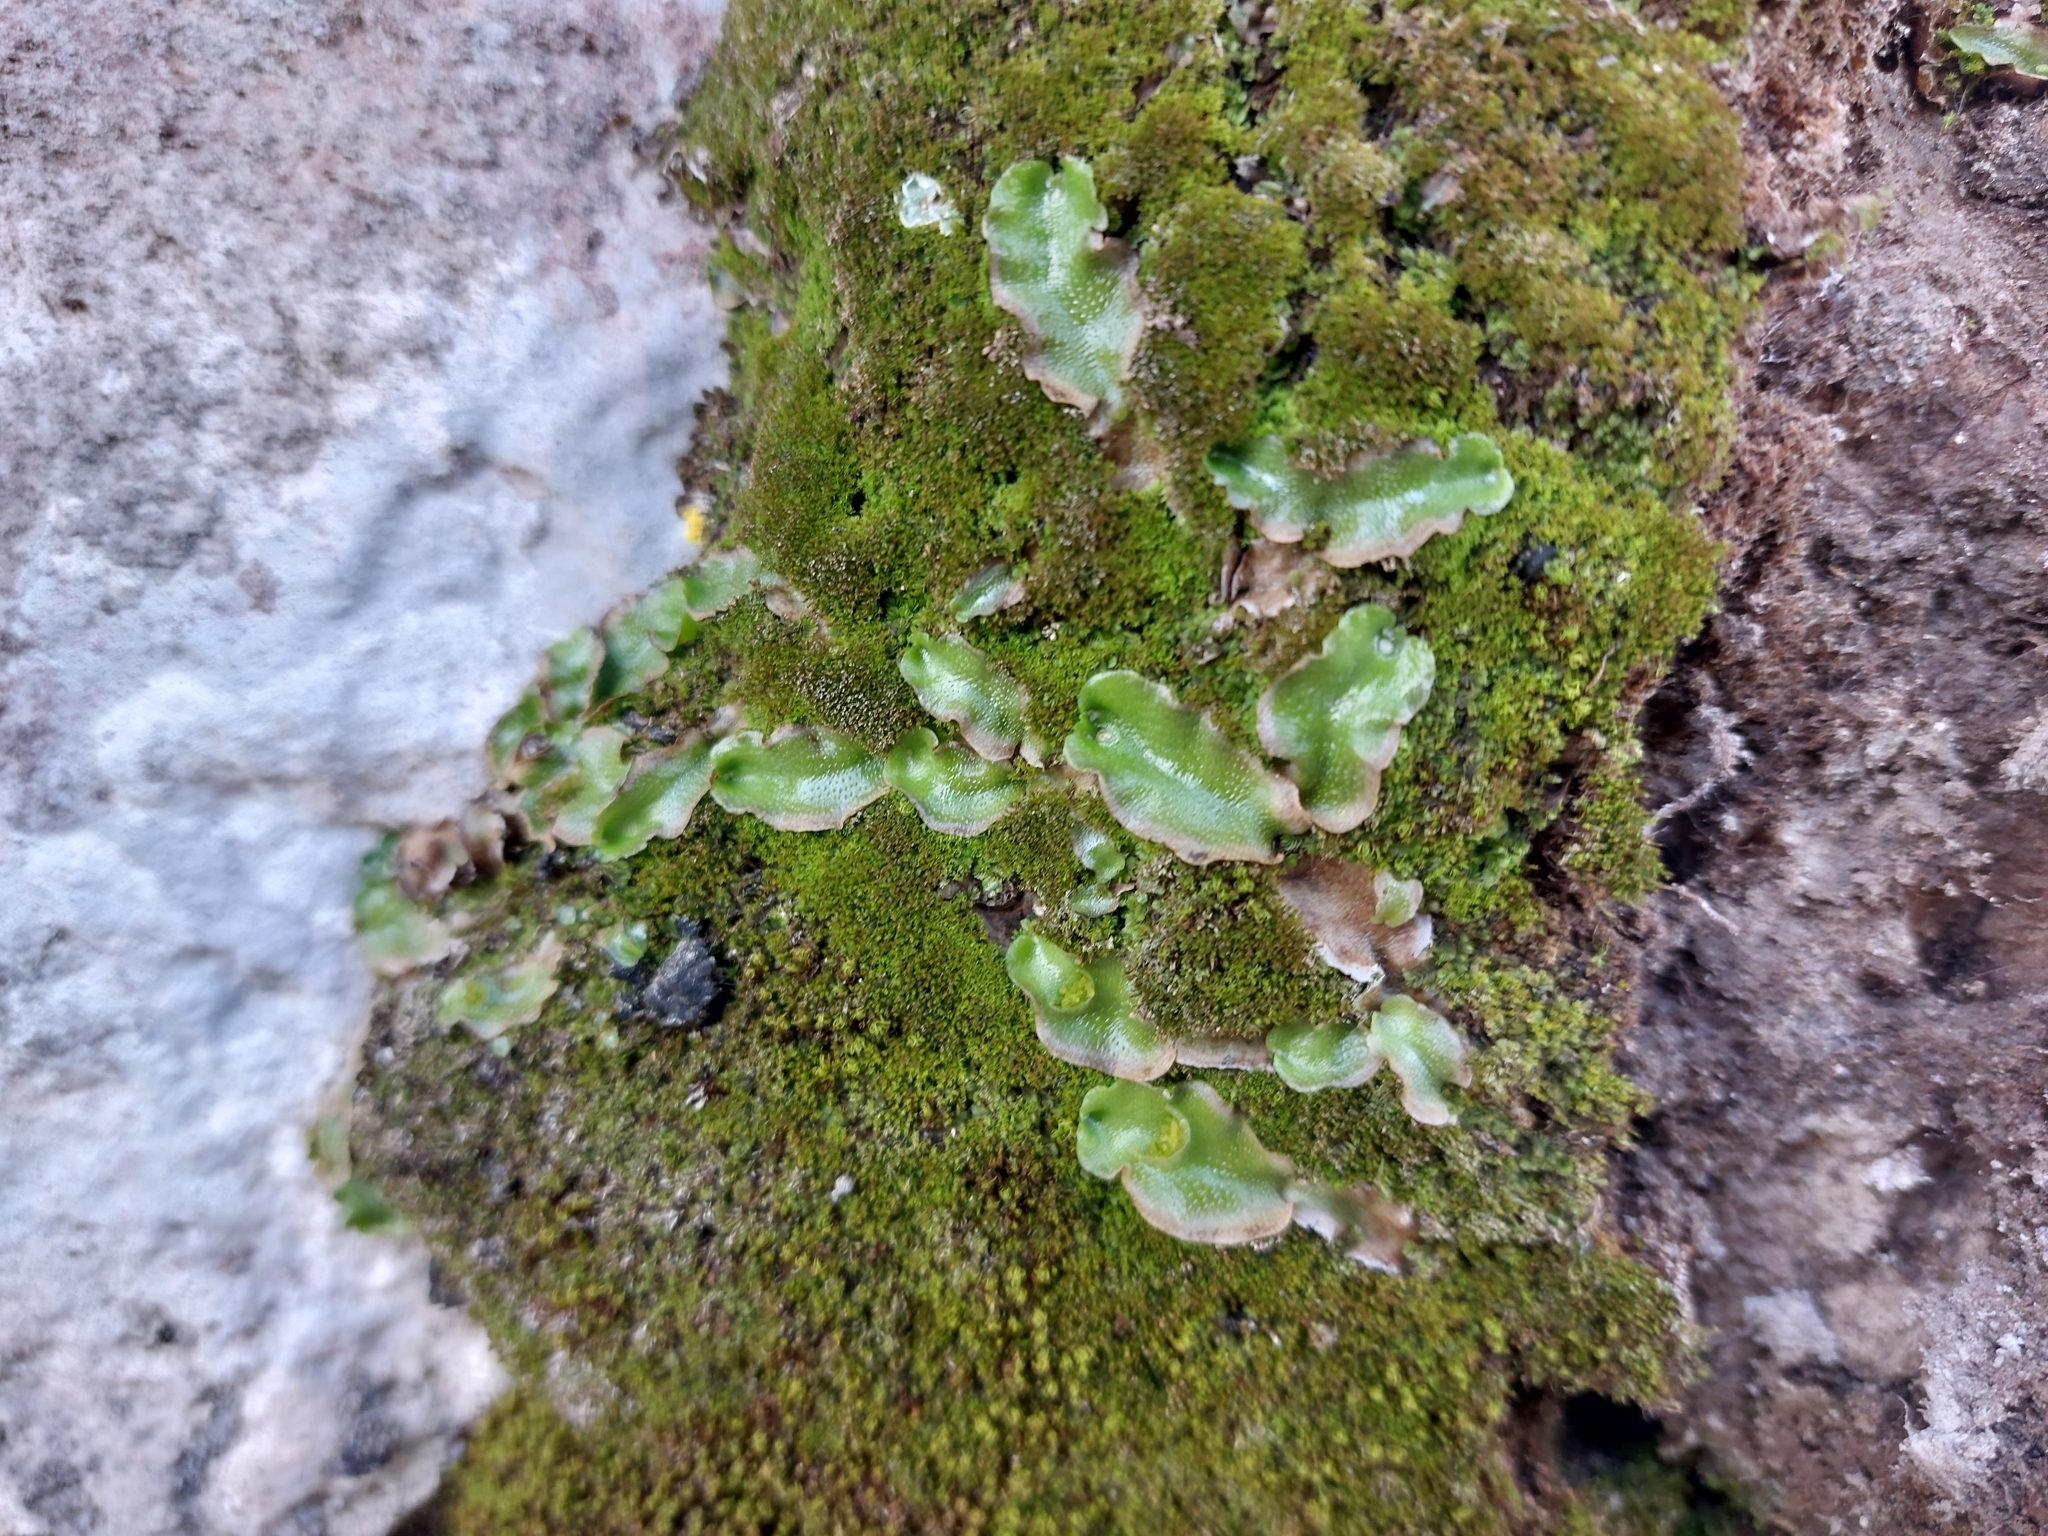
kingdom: Plantae
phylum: Marchantiophyta
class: Marchantiopsida
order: Lunulariales
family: Lunulariaceae
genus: Lunularia
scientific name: Lunularia cruciata
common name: Crescent-cup liverwort
